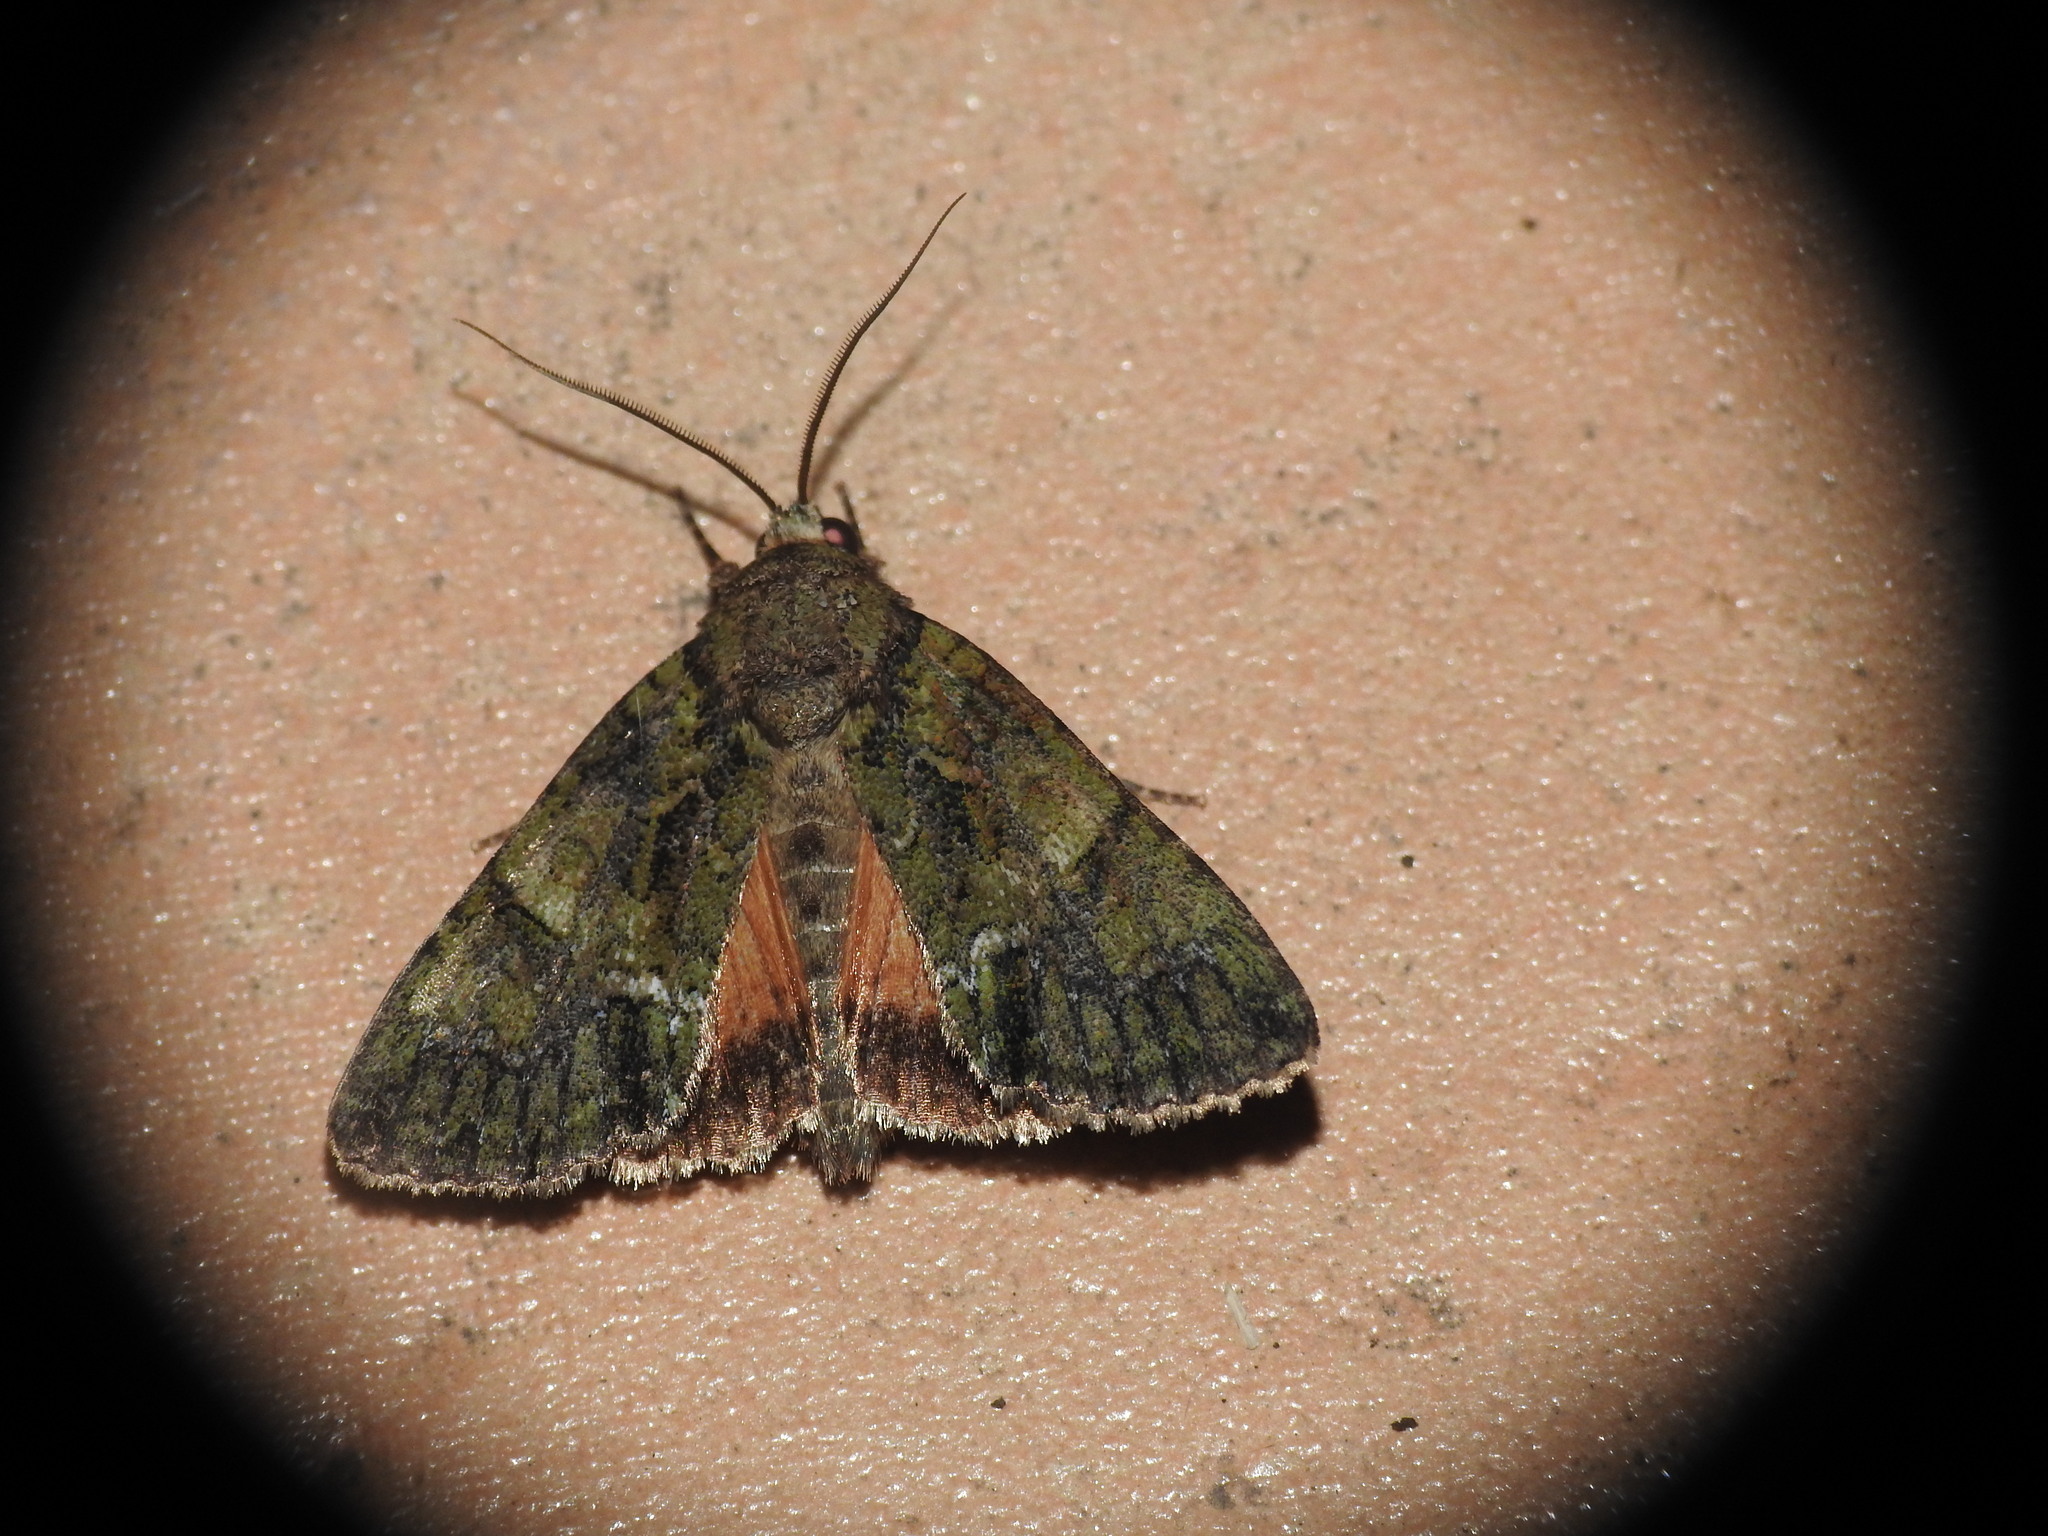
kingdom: Animalia
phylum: Arthropoda
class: Insecta
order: Lepidoptera
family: Noctuidae
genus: Polyphaenis
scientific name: Polyphaenis sericata
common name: Guernsey underwing
